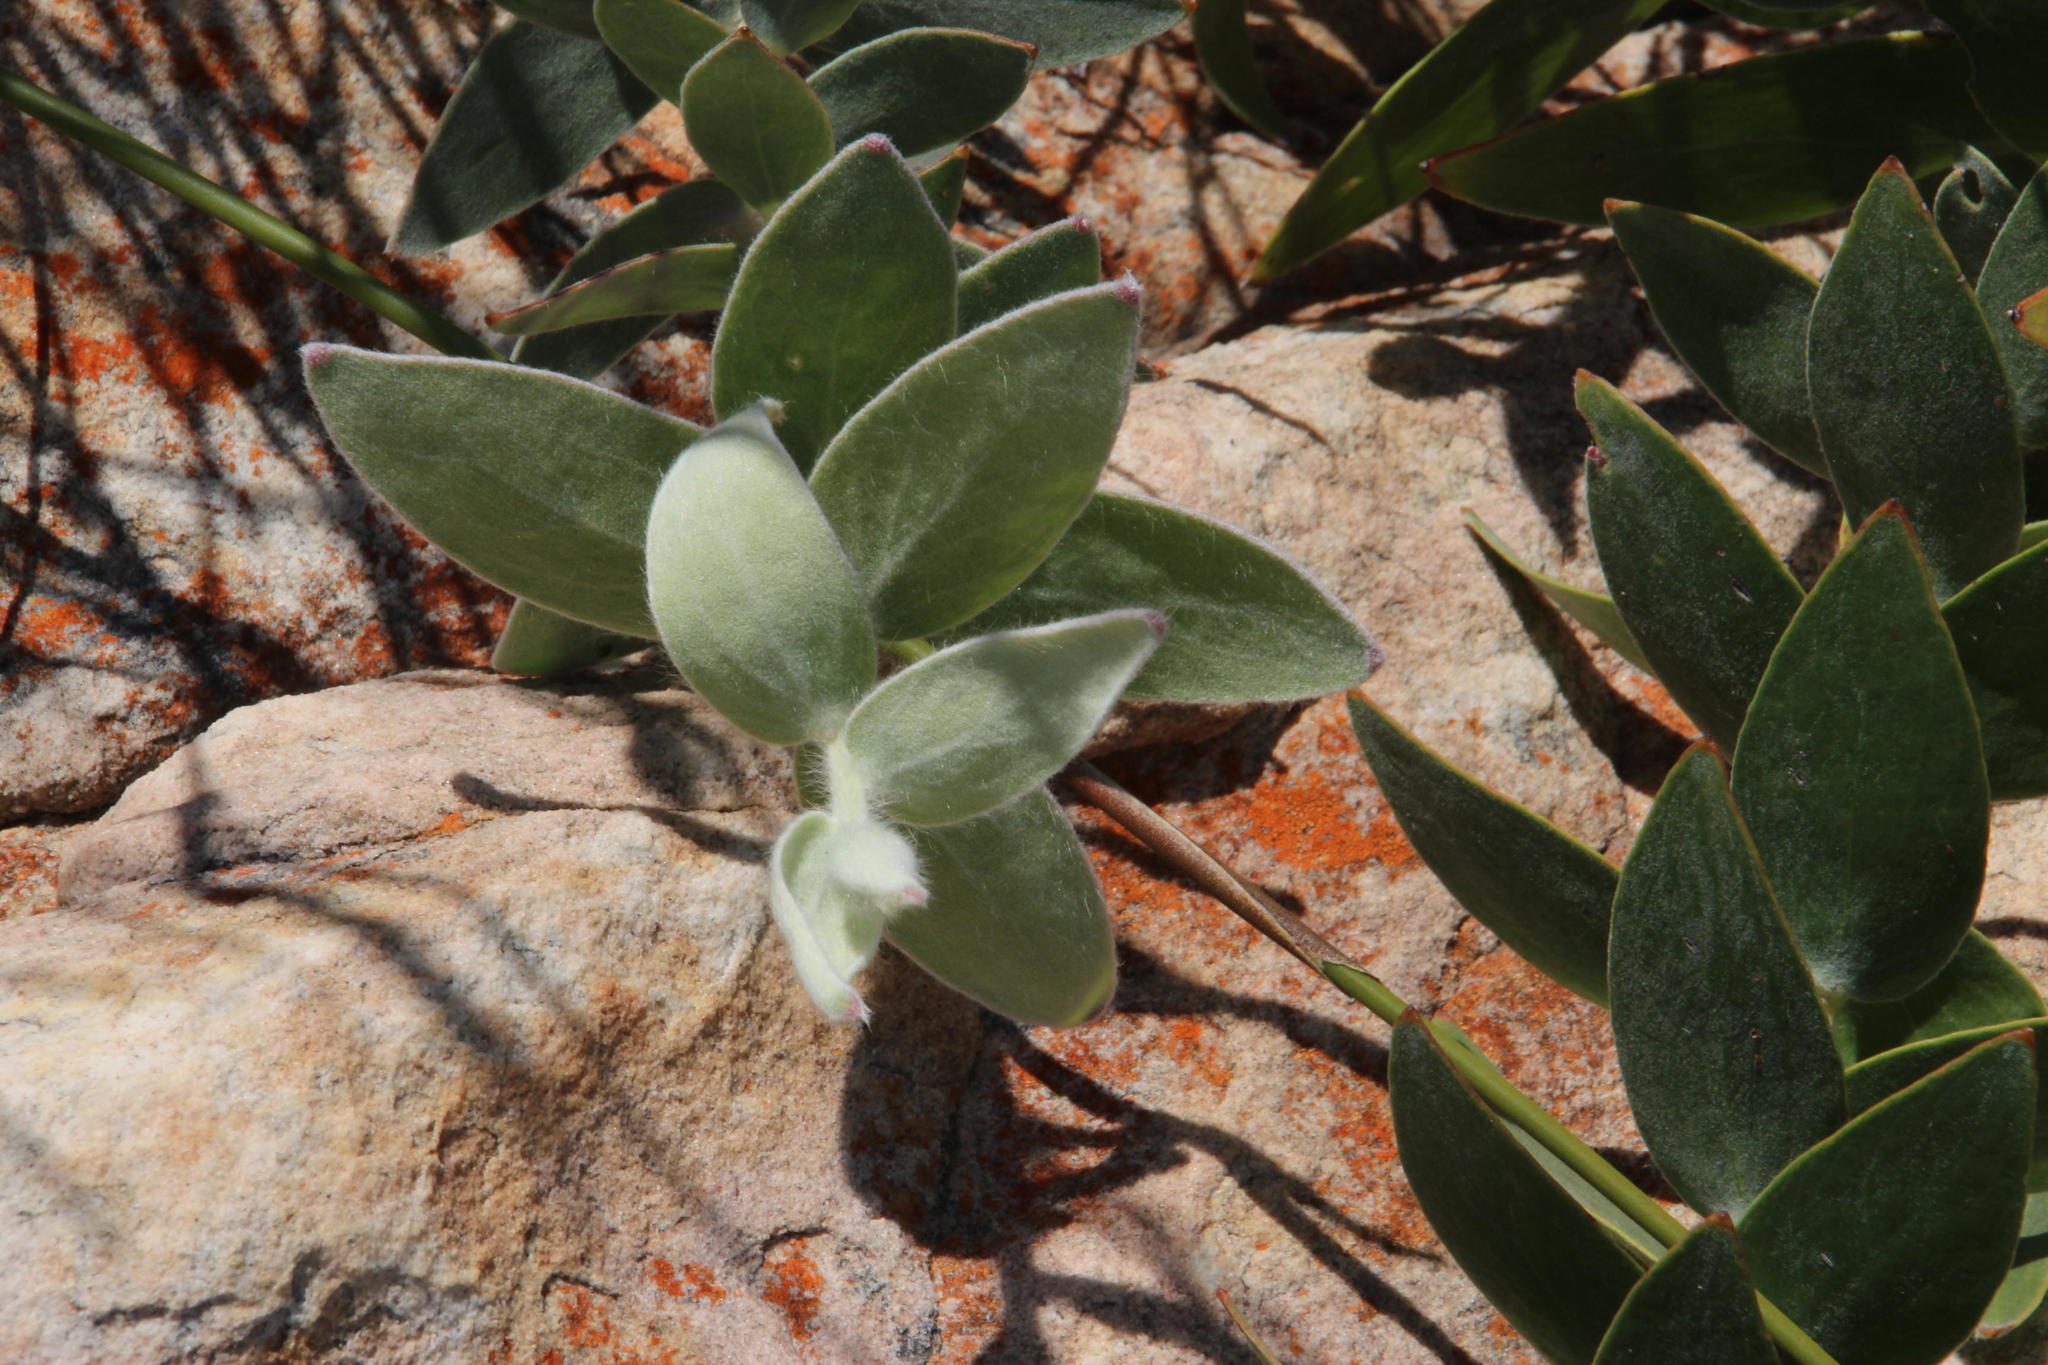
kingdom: Plantae
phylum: Tracheophyta
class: Magnoliopsida
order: Proteales
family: Proteaceae
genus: Leucospermum
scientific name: Leucospermum cordatum
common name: Heart-leaf pincushion
